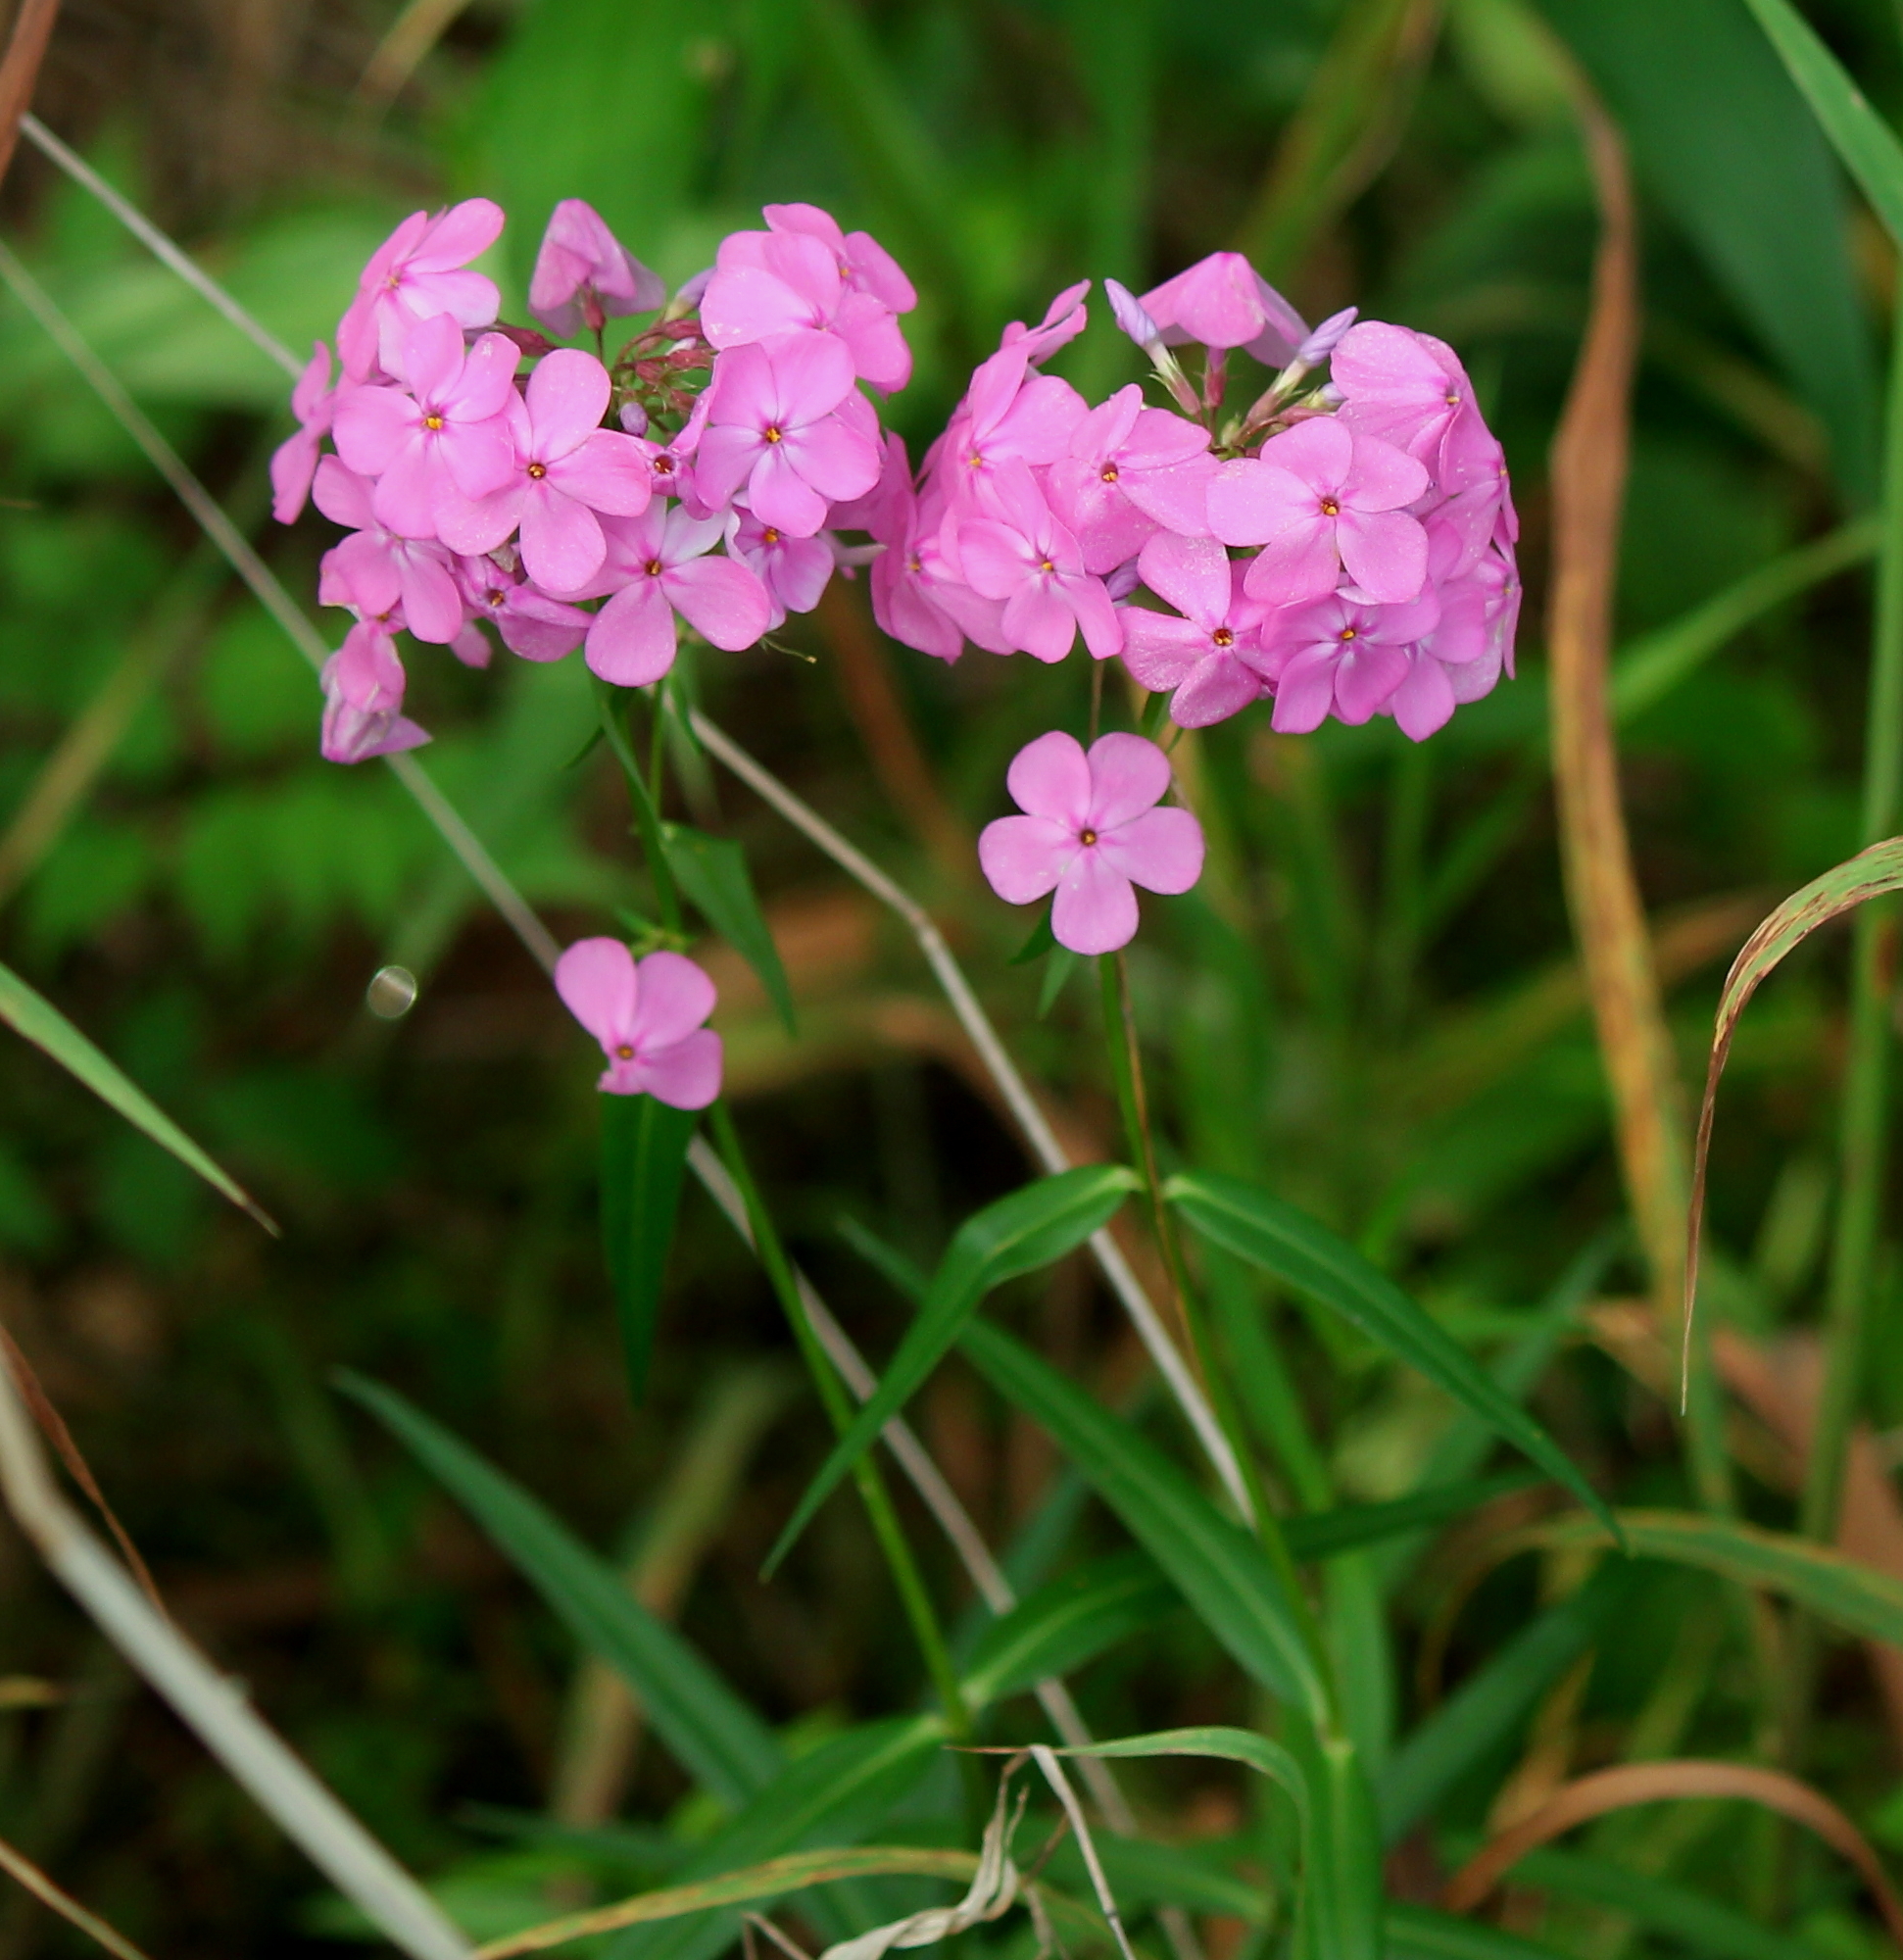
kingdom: Plantae
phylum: Tracheophyta
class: Magnoliopsida
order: Ericales
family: Polemoniaceae
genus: Phlox
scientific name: Phlox glaberrima
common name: Smooth phlox
